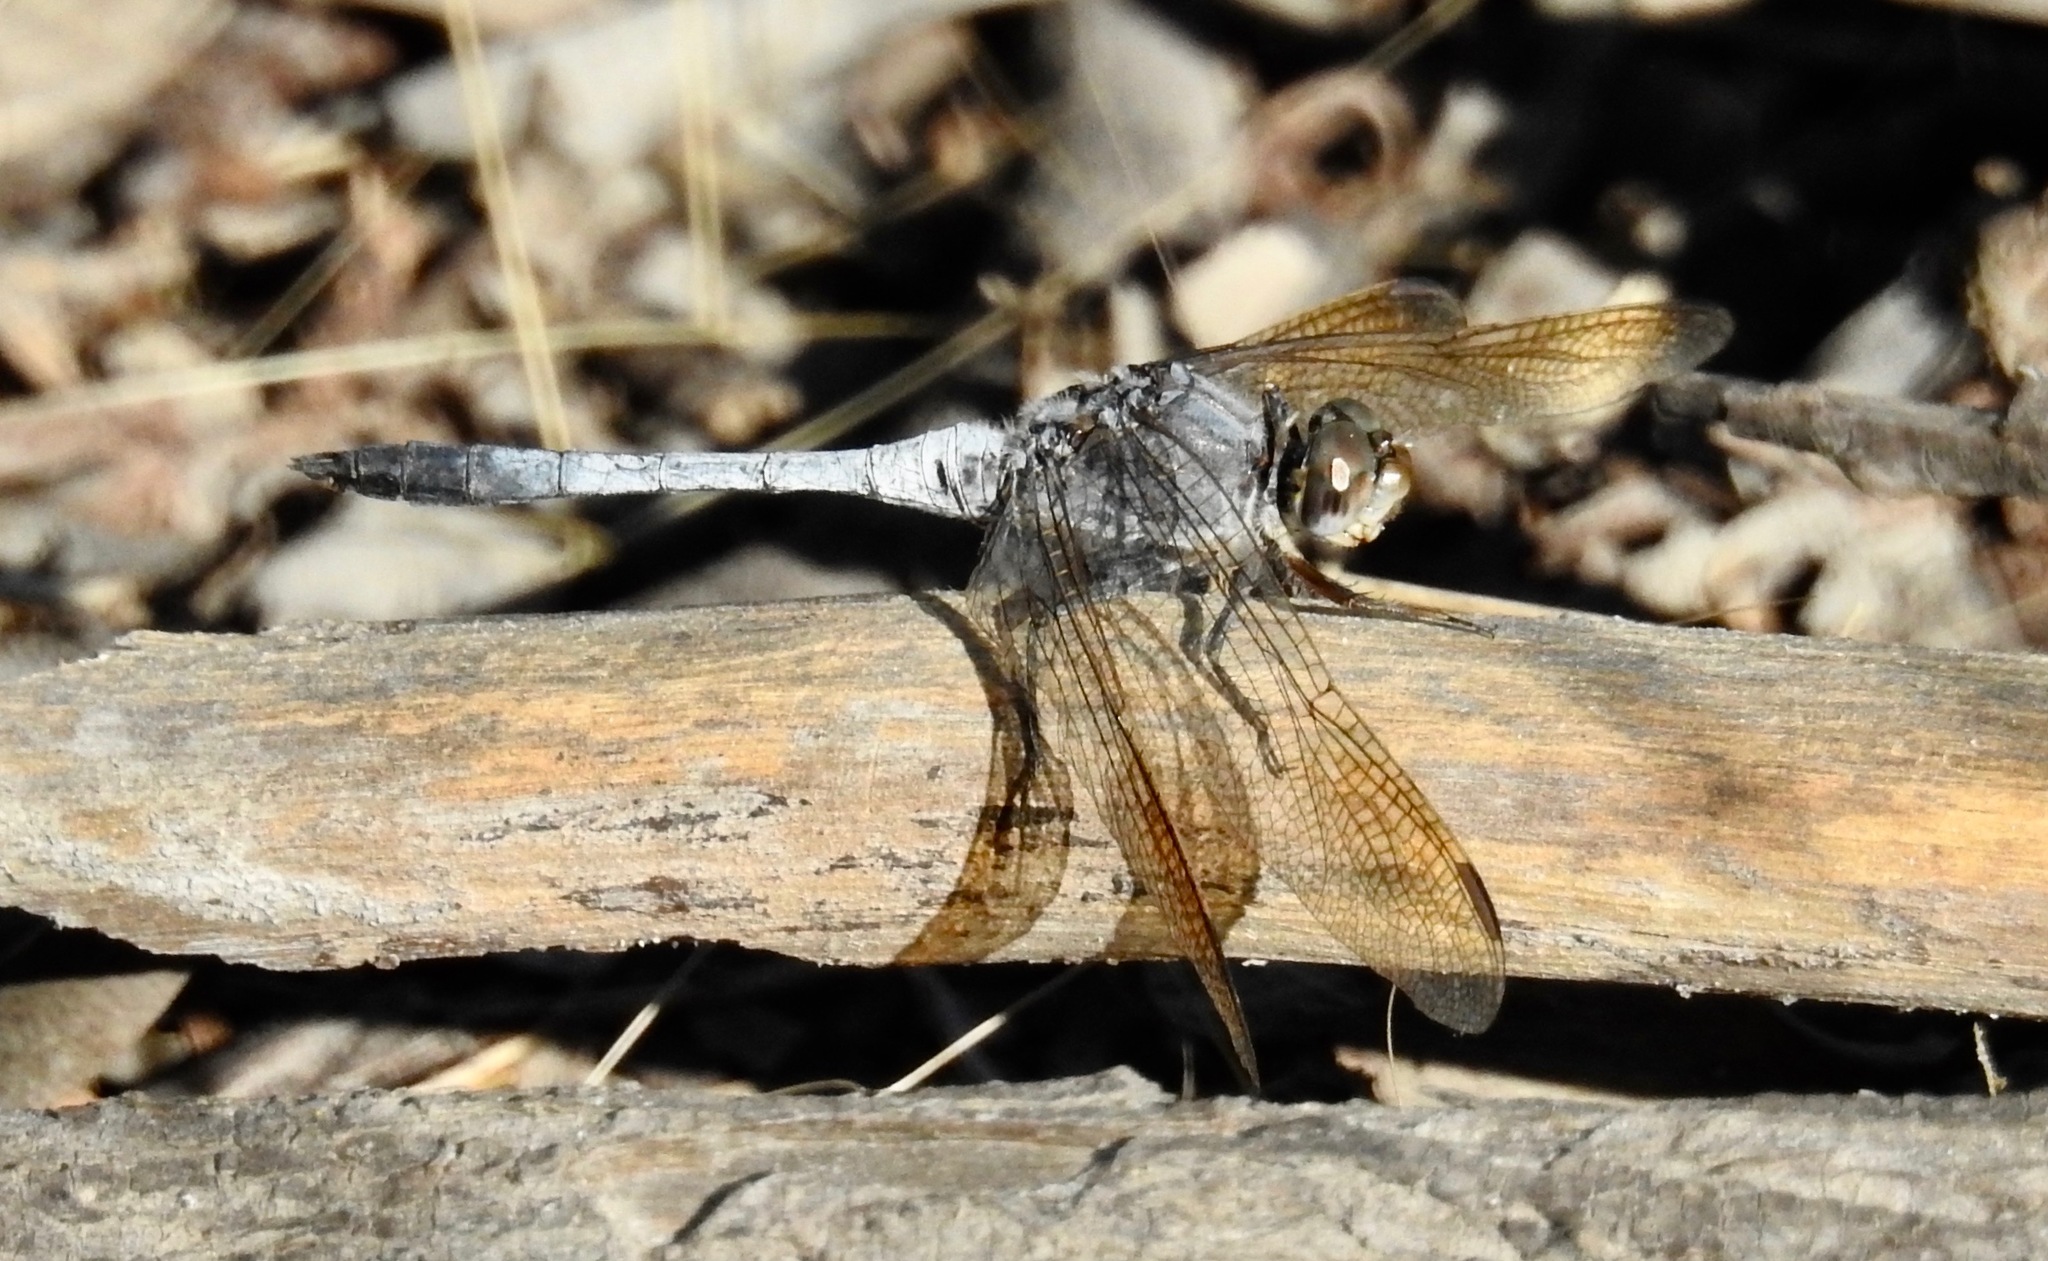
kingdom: Animalia
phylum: Arthropoda
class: Insecta
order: Odonata
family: Libellulidae
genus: Orthetrum
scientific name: Orthetrum caledonicum
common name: Blue skimmer
